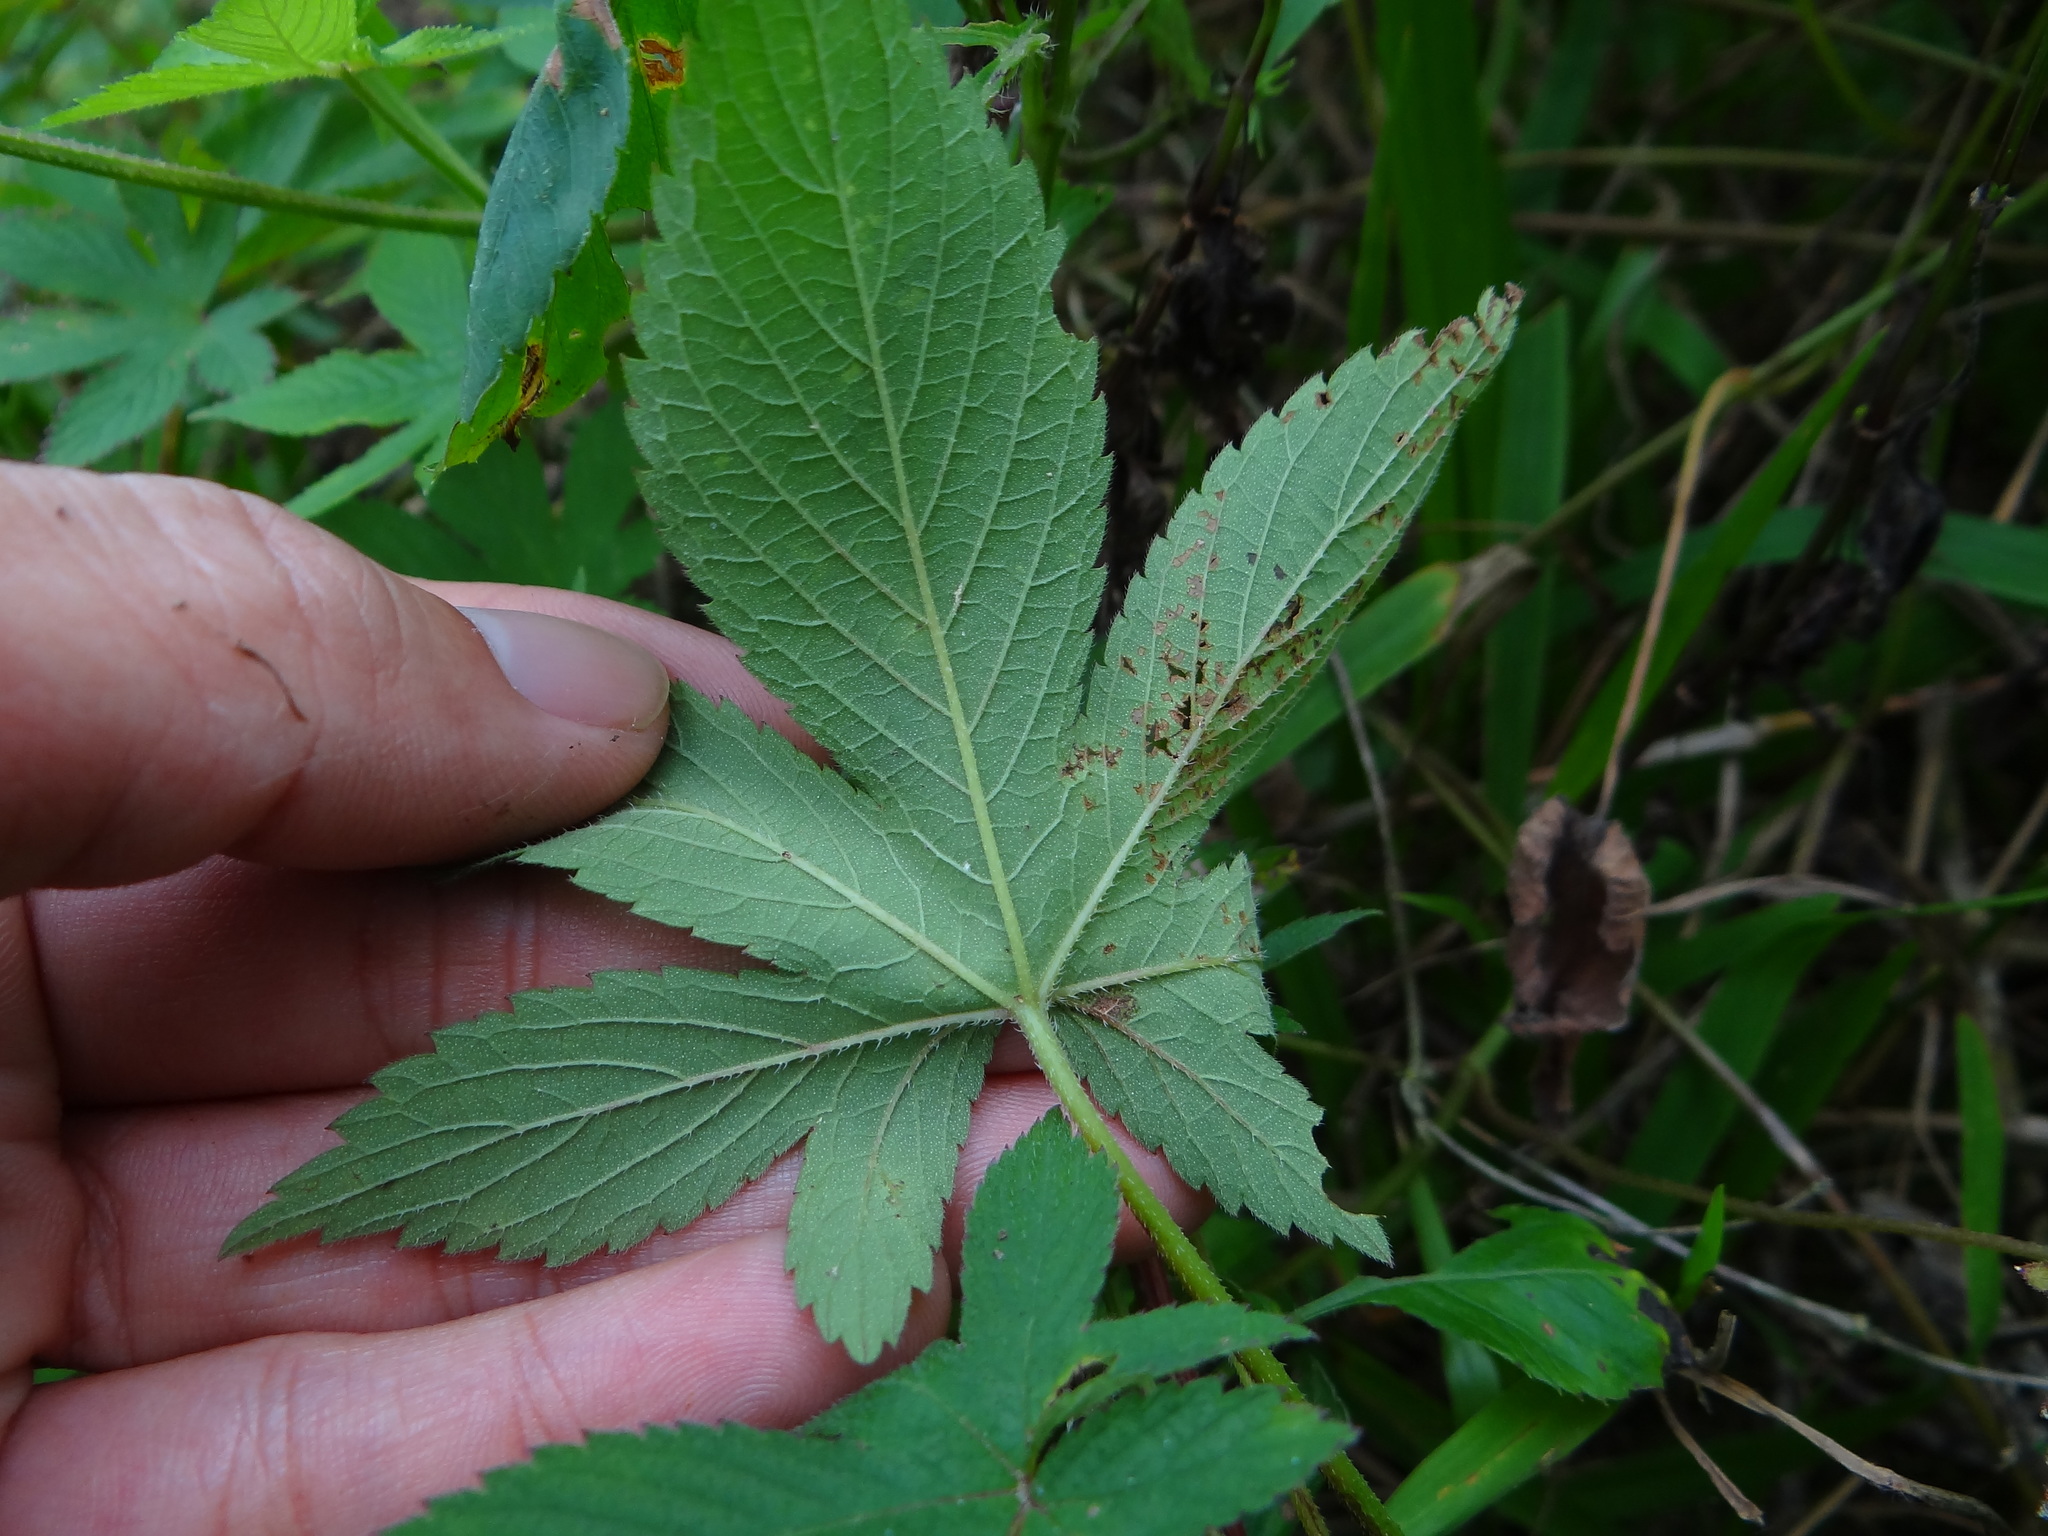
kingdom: Plantae
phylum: Tracheophyta
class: Magnoliopsida
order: Rosales
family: Cannabaceae
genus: Humulus
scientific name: Humulus scandens
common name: Japanese hop
